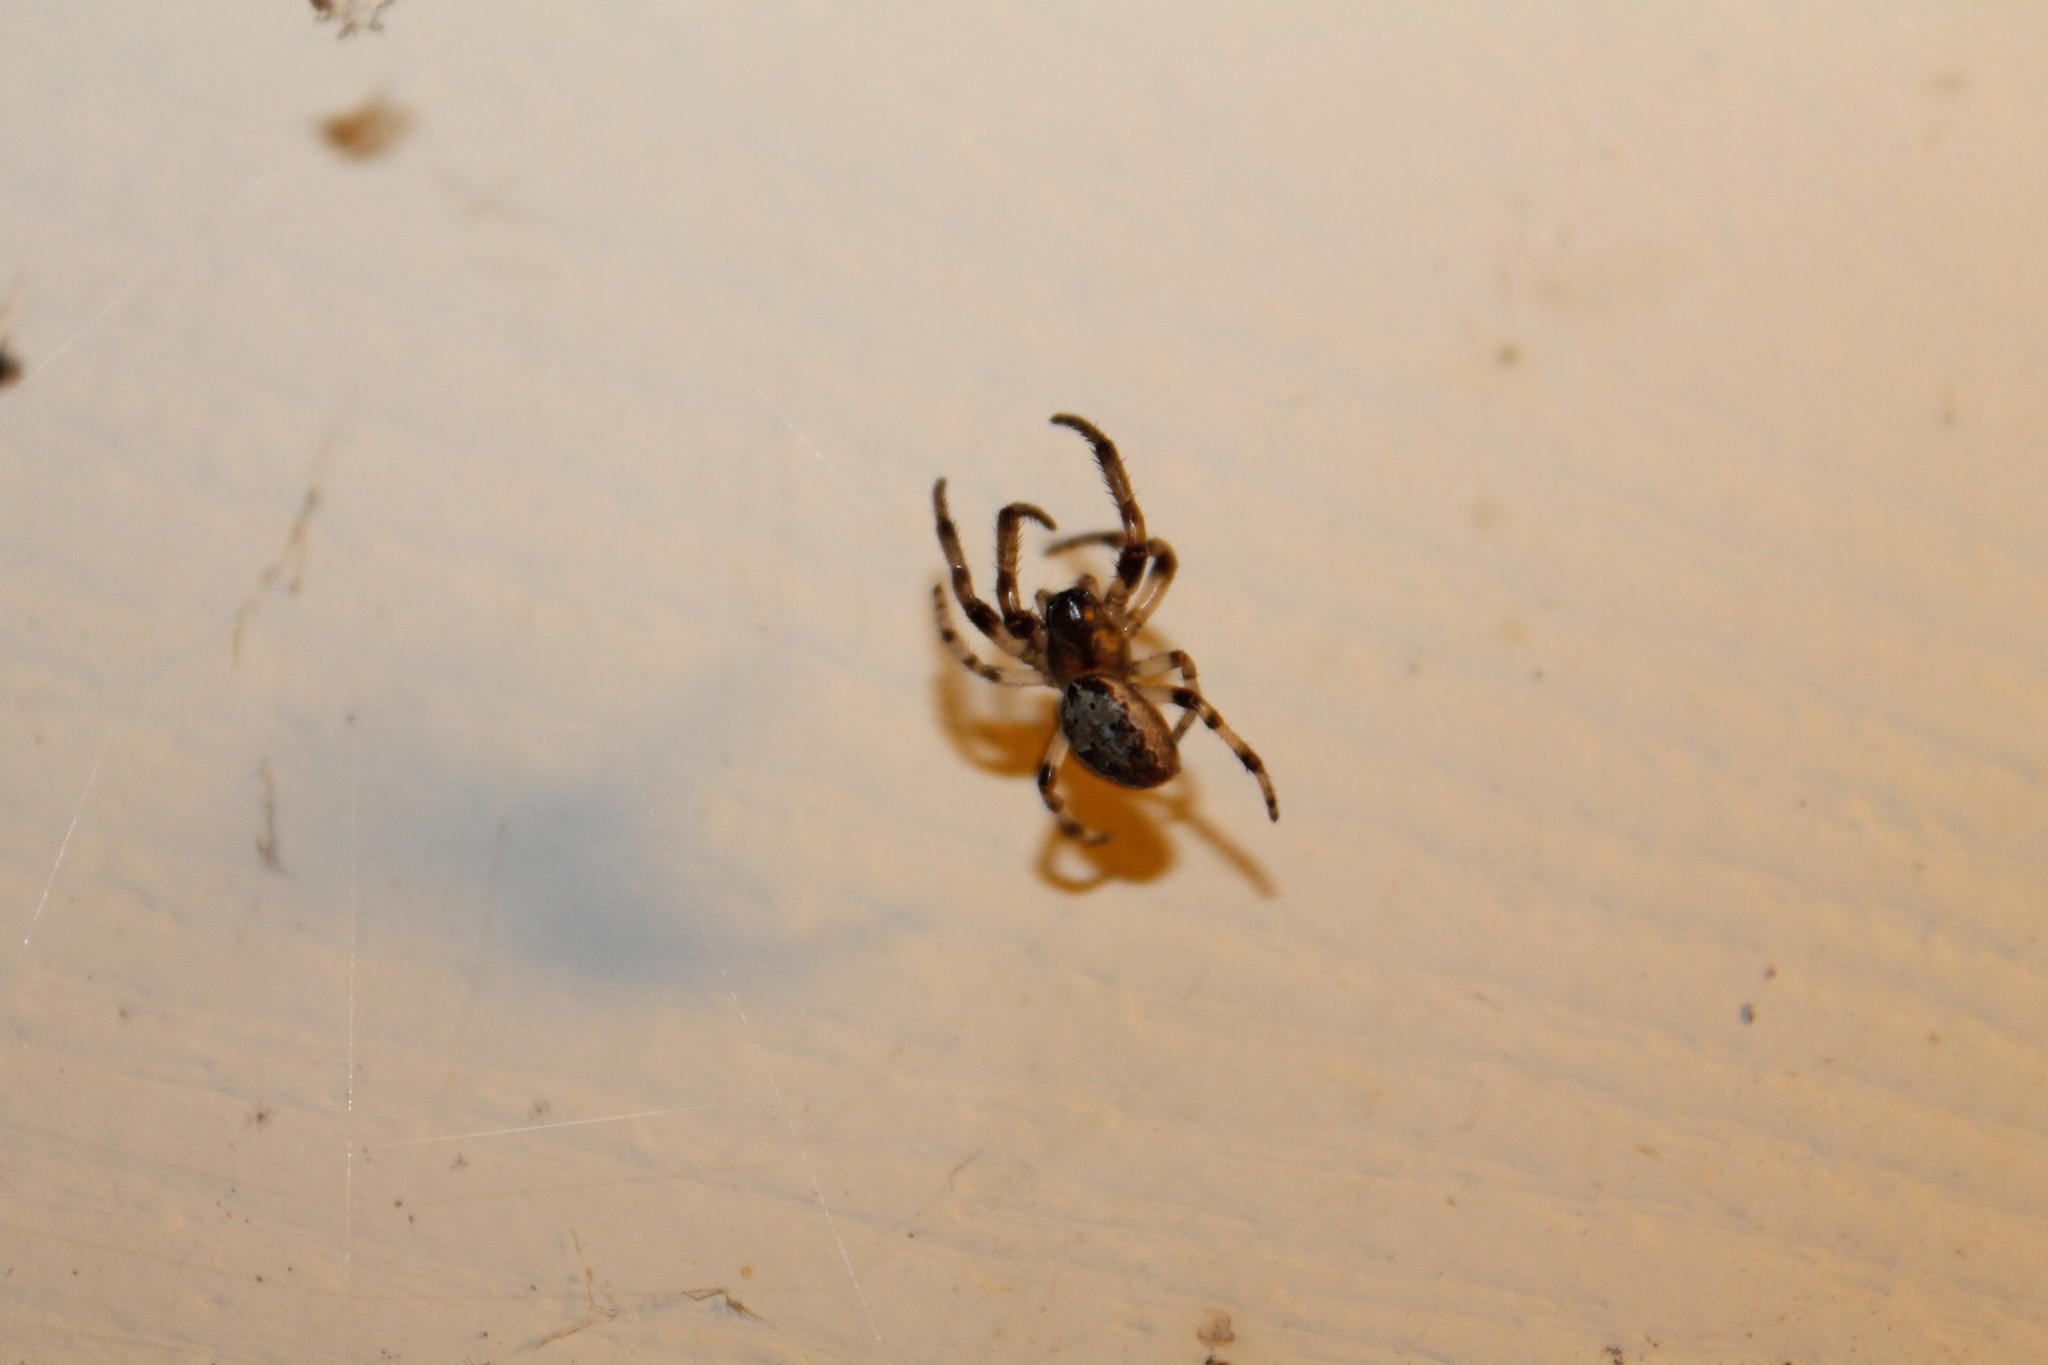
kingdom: Animalia
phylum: Arthropoda
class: Arachnida
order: Araneae
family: Araneidae
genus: Larinioides
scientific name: Larinioides cornutus
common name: Furrow orbweaver
